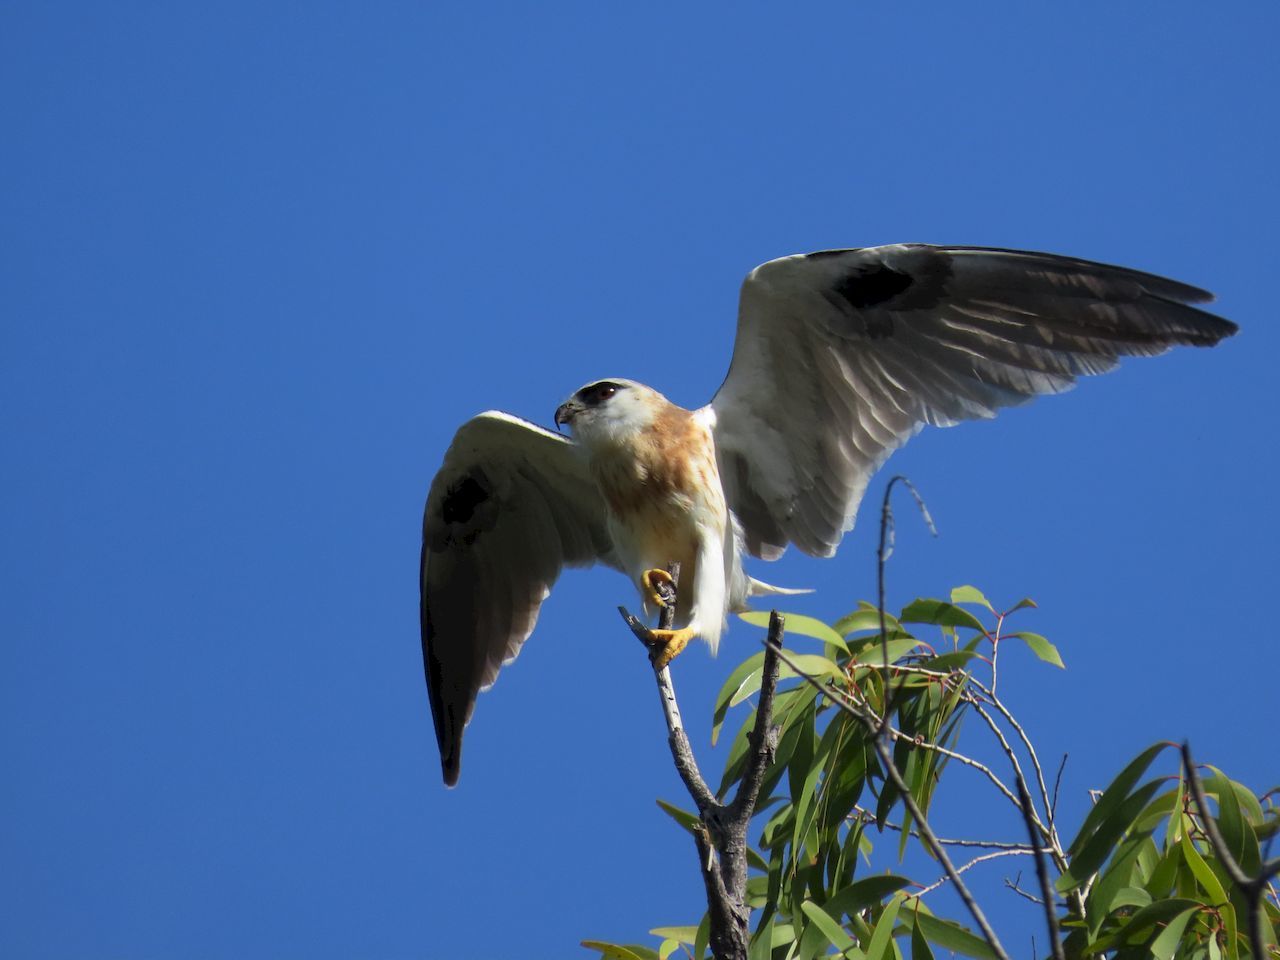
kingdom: Animalia
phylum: Chordata
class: Aves
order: Accipitriformes
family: Accipitridae
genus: Elanus
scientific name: Elanus axillaris
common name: Black-shouldered kite
